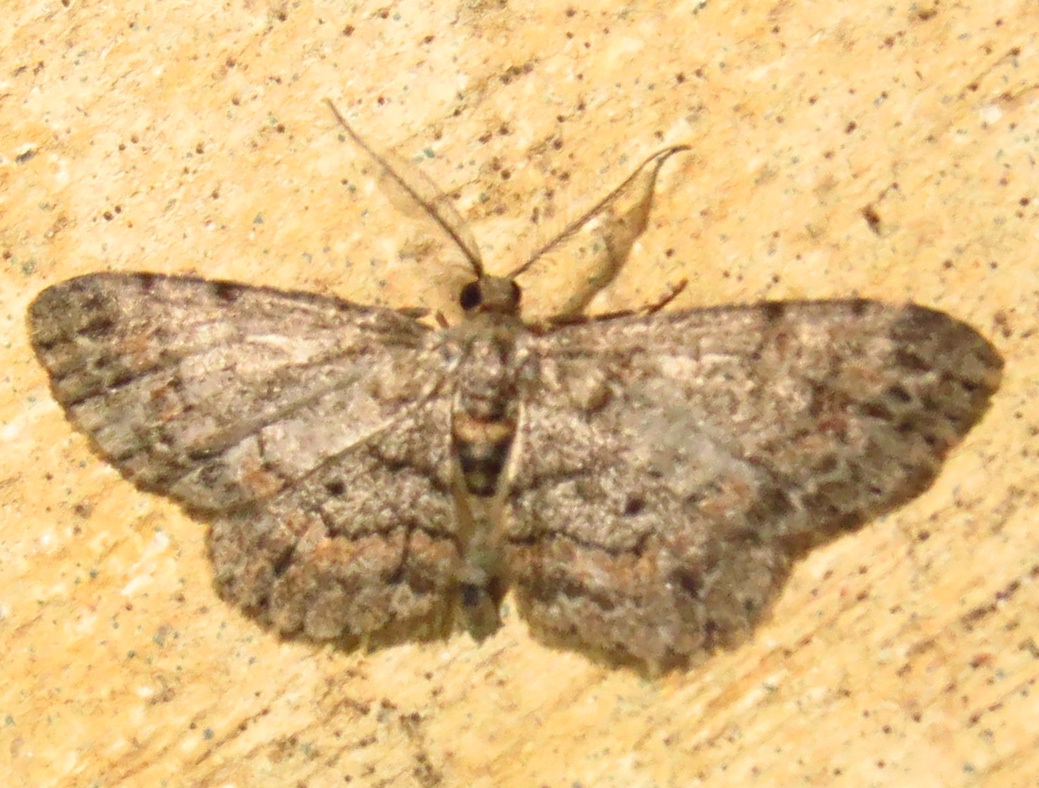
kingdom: Animalia
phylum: Arthropoda
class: Insecta
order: Lepidoptera
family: Geometridae
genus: Glenoides
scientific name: Glenoides texanaria
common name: Texas gray
